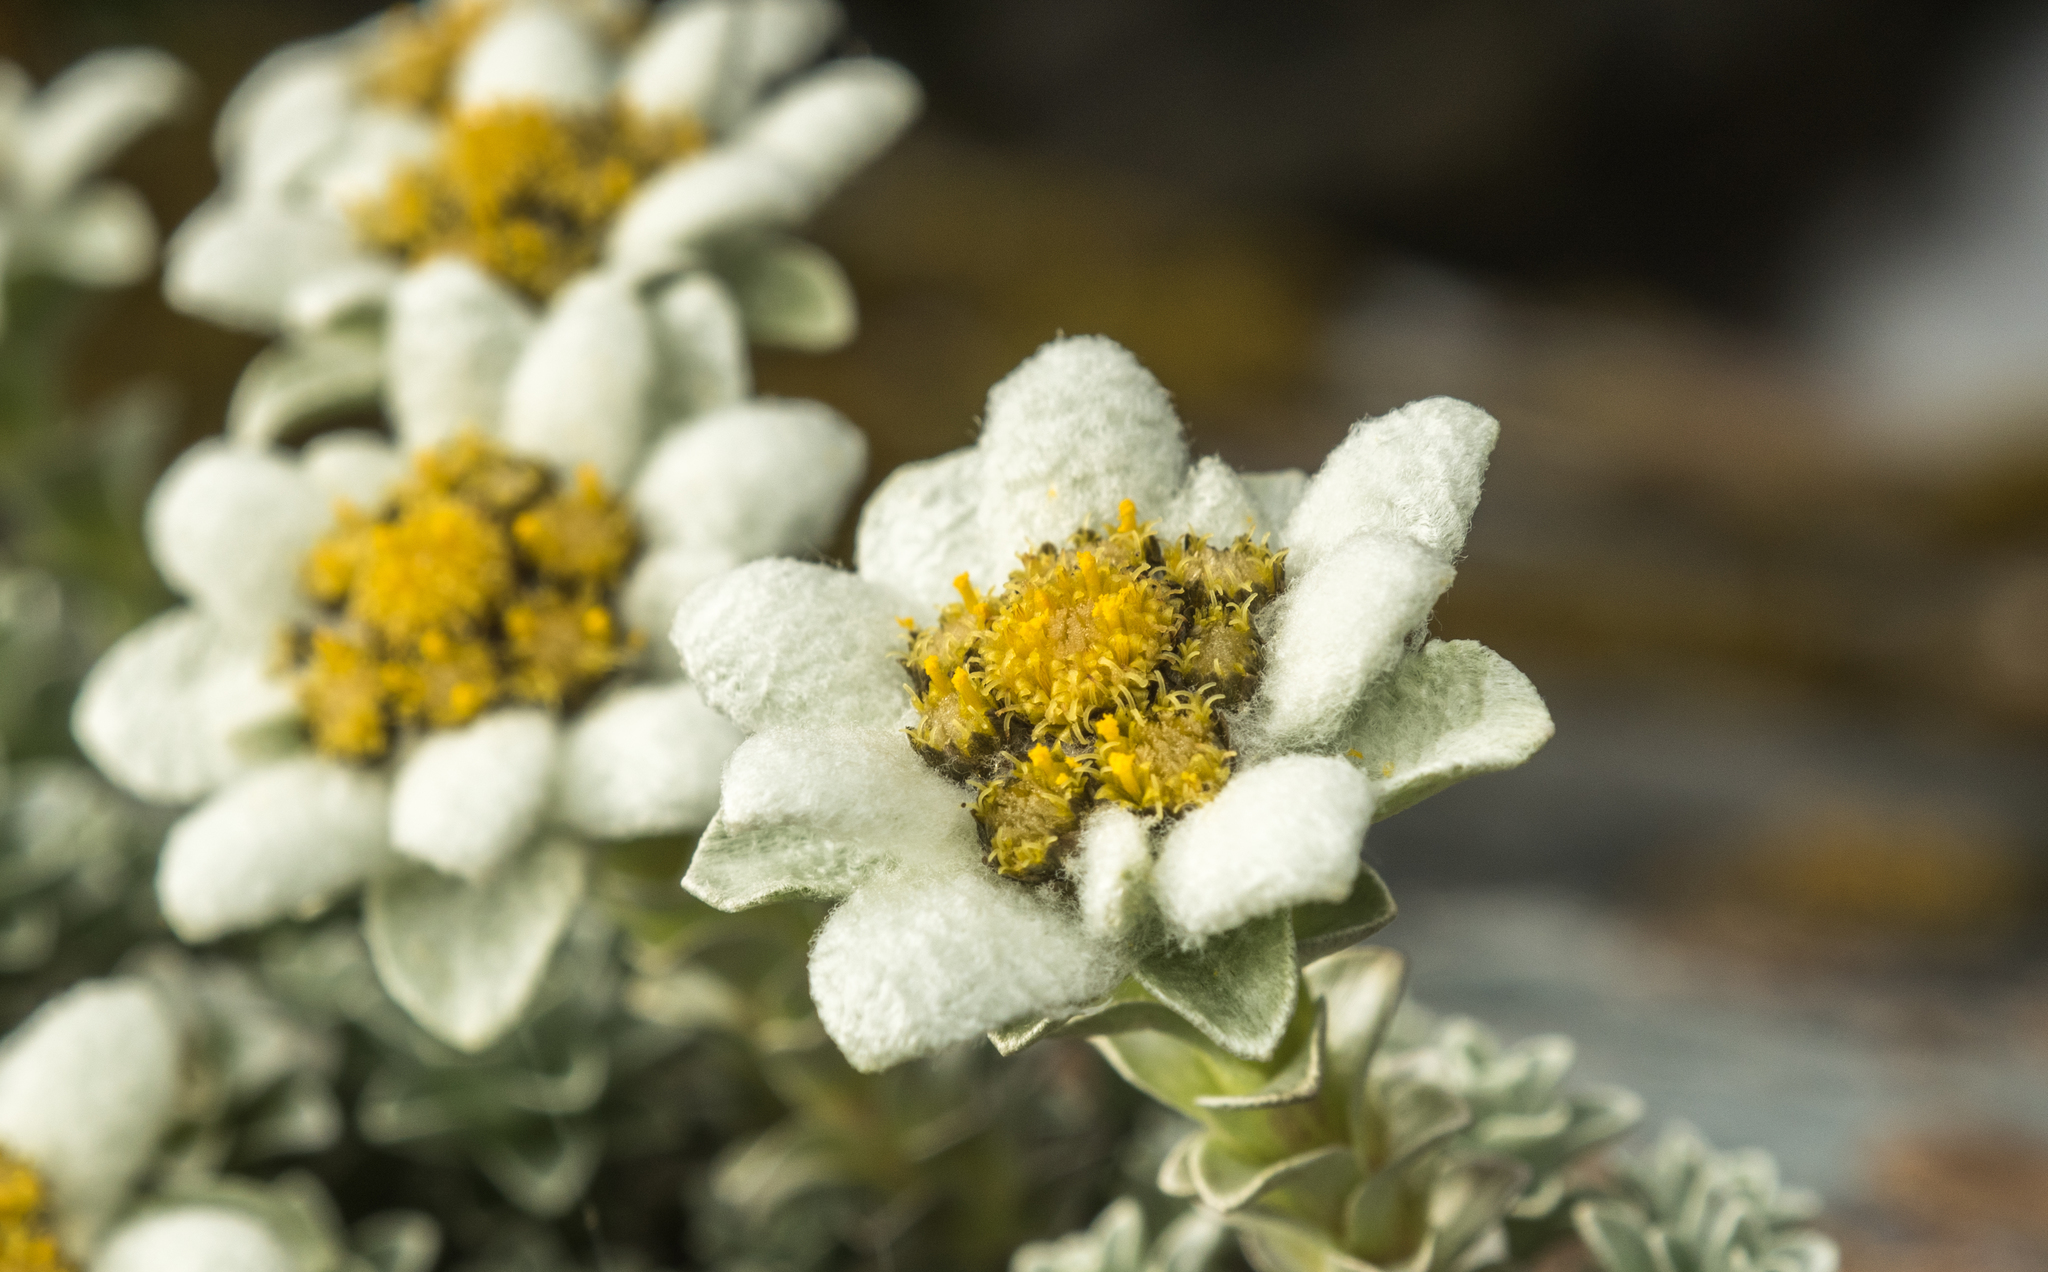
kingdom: Plantae
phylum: Tracheophyta
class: Magnoliopsida
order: Asterales
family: Asteraceae
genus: Leucogenes
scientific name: Leucogenes grandiceps
